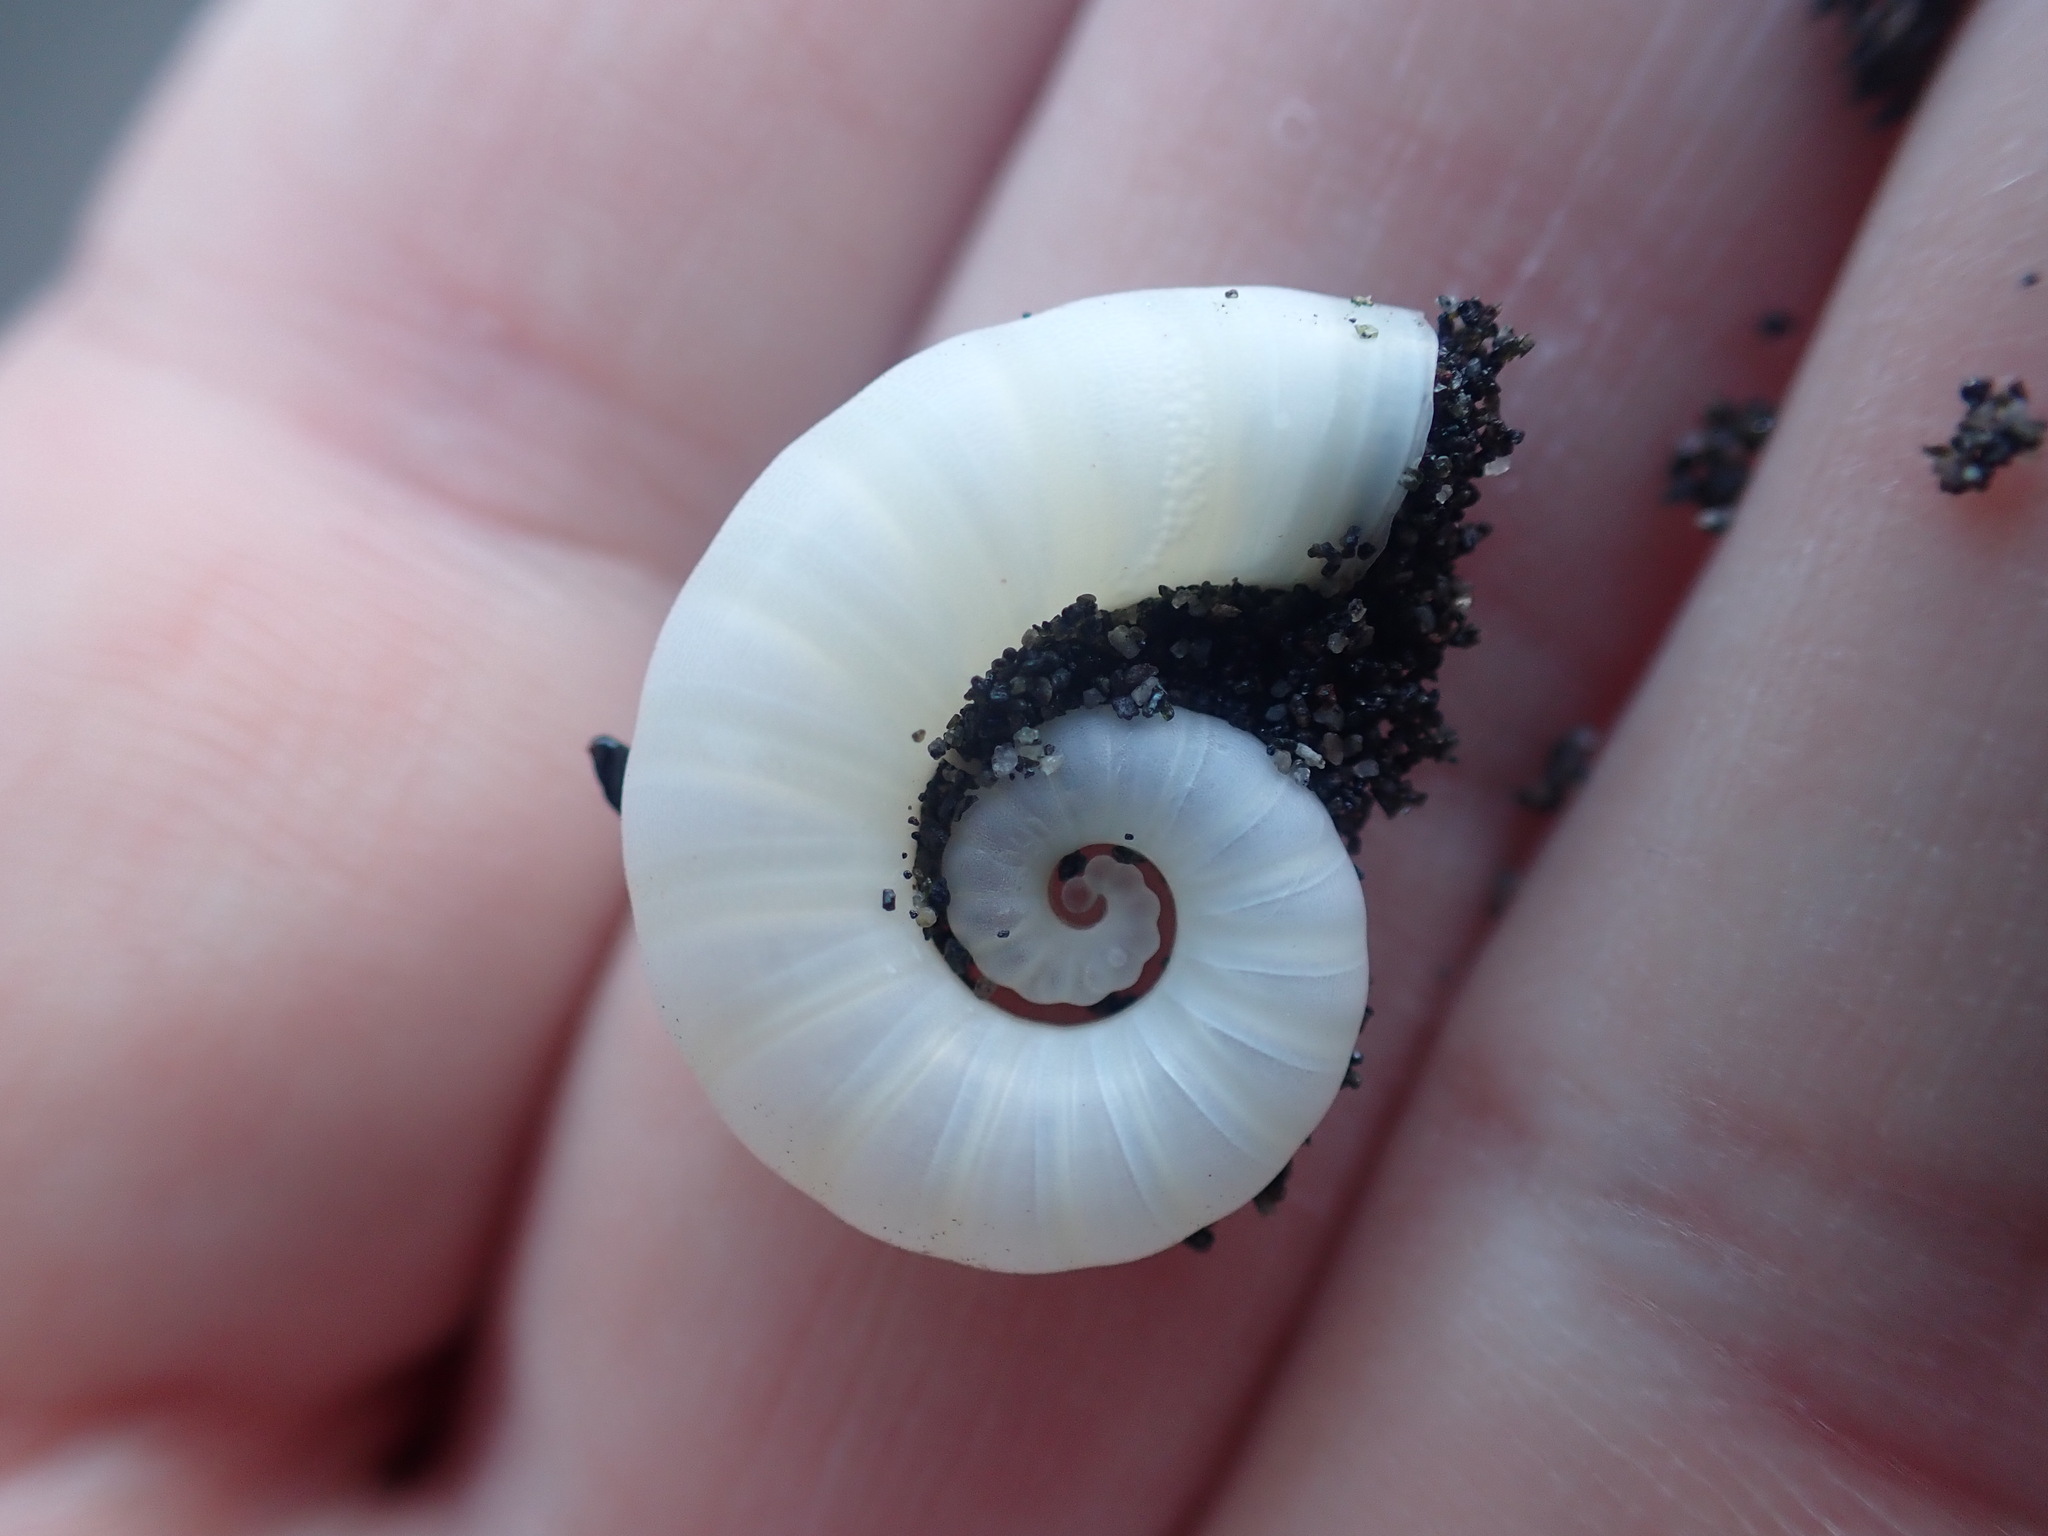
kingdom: Animalia
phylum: Mollusca
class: Cephalopoda
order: Spirulida
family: Spirulidae
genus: Spirula
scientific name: Spirula spirula
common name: Ram's horn squid
